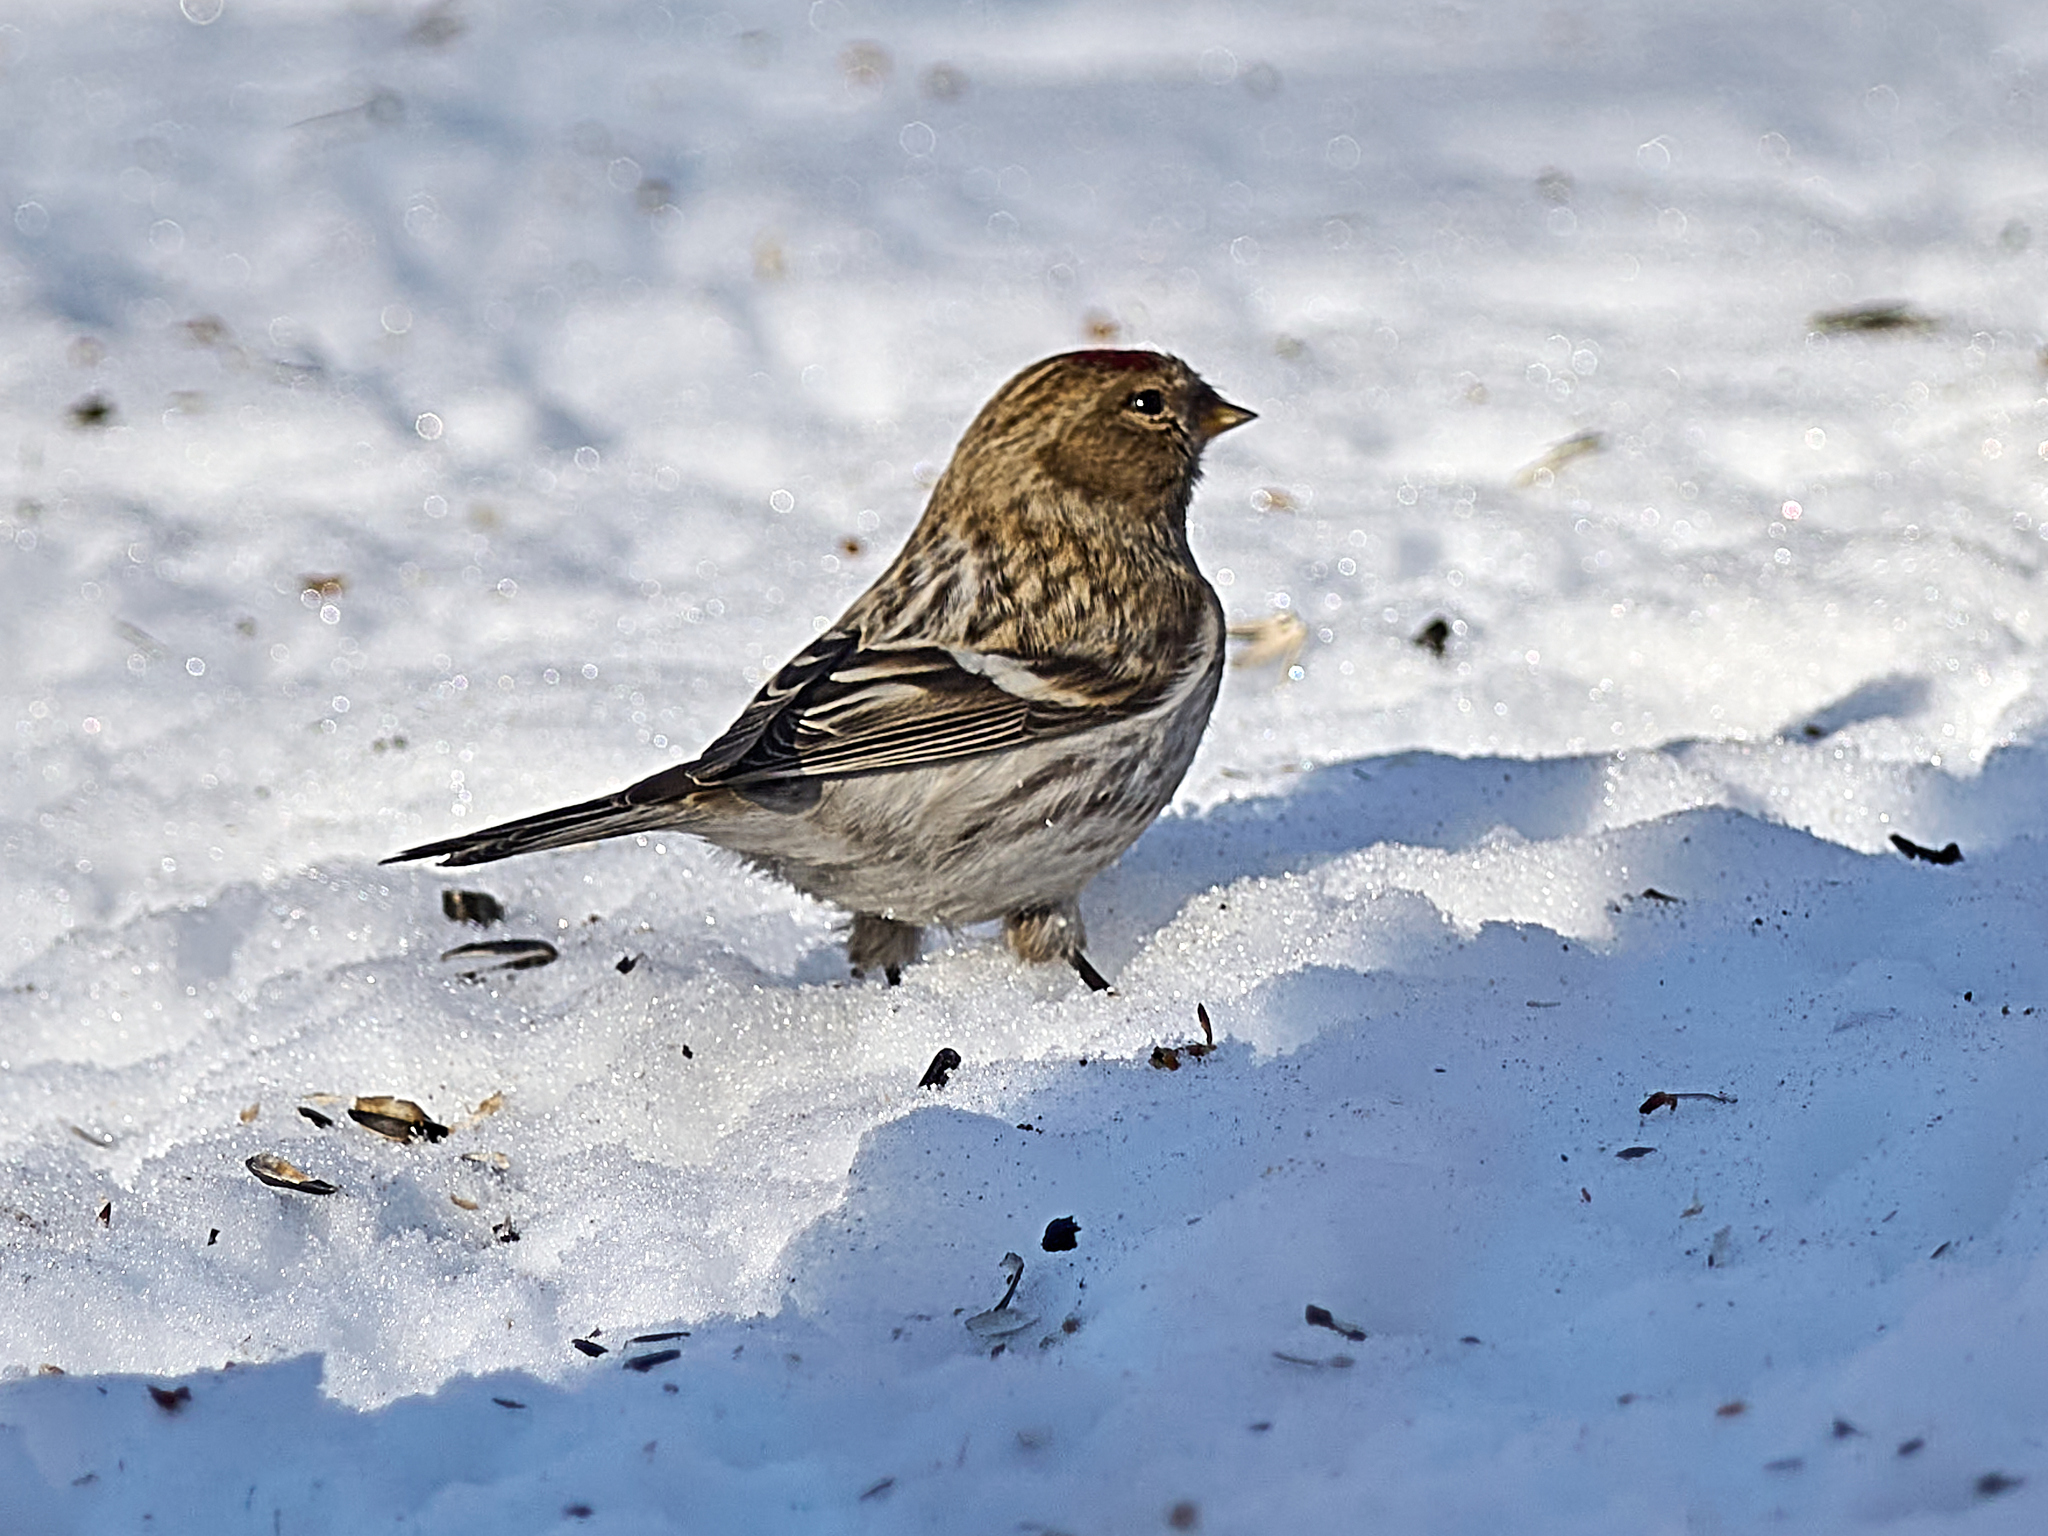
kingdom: Animalia
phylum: Chordata
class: Aves
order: Passeriformes
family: Fringillidae
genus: Acanthis
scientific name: Acanthis flammea
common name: Common redpoll
